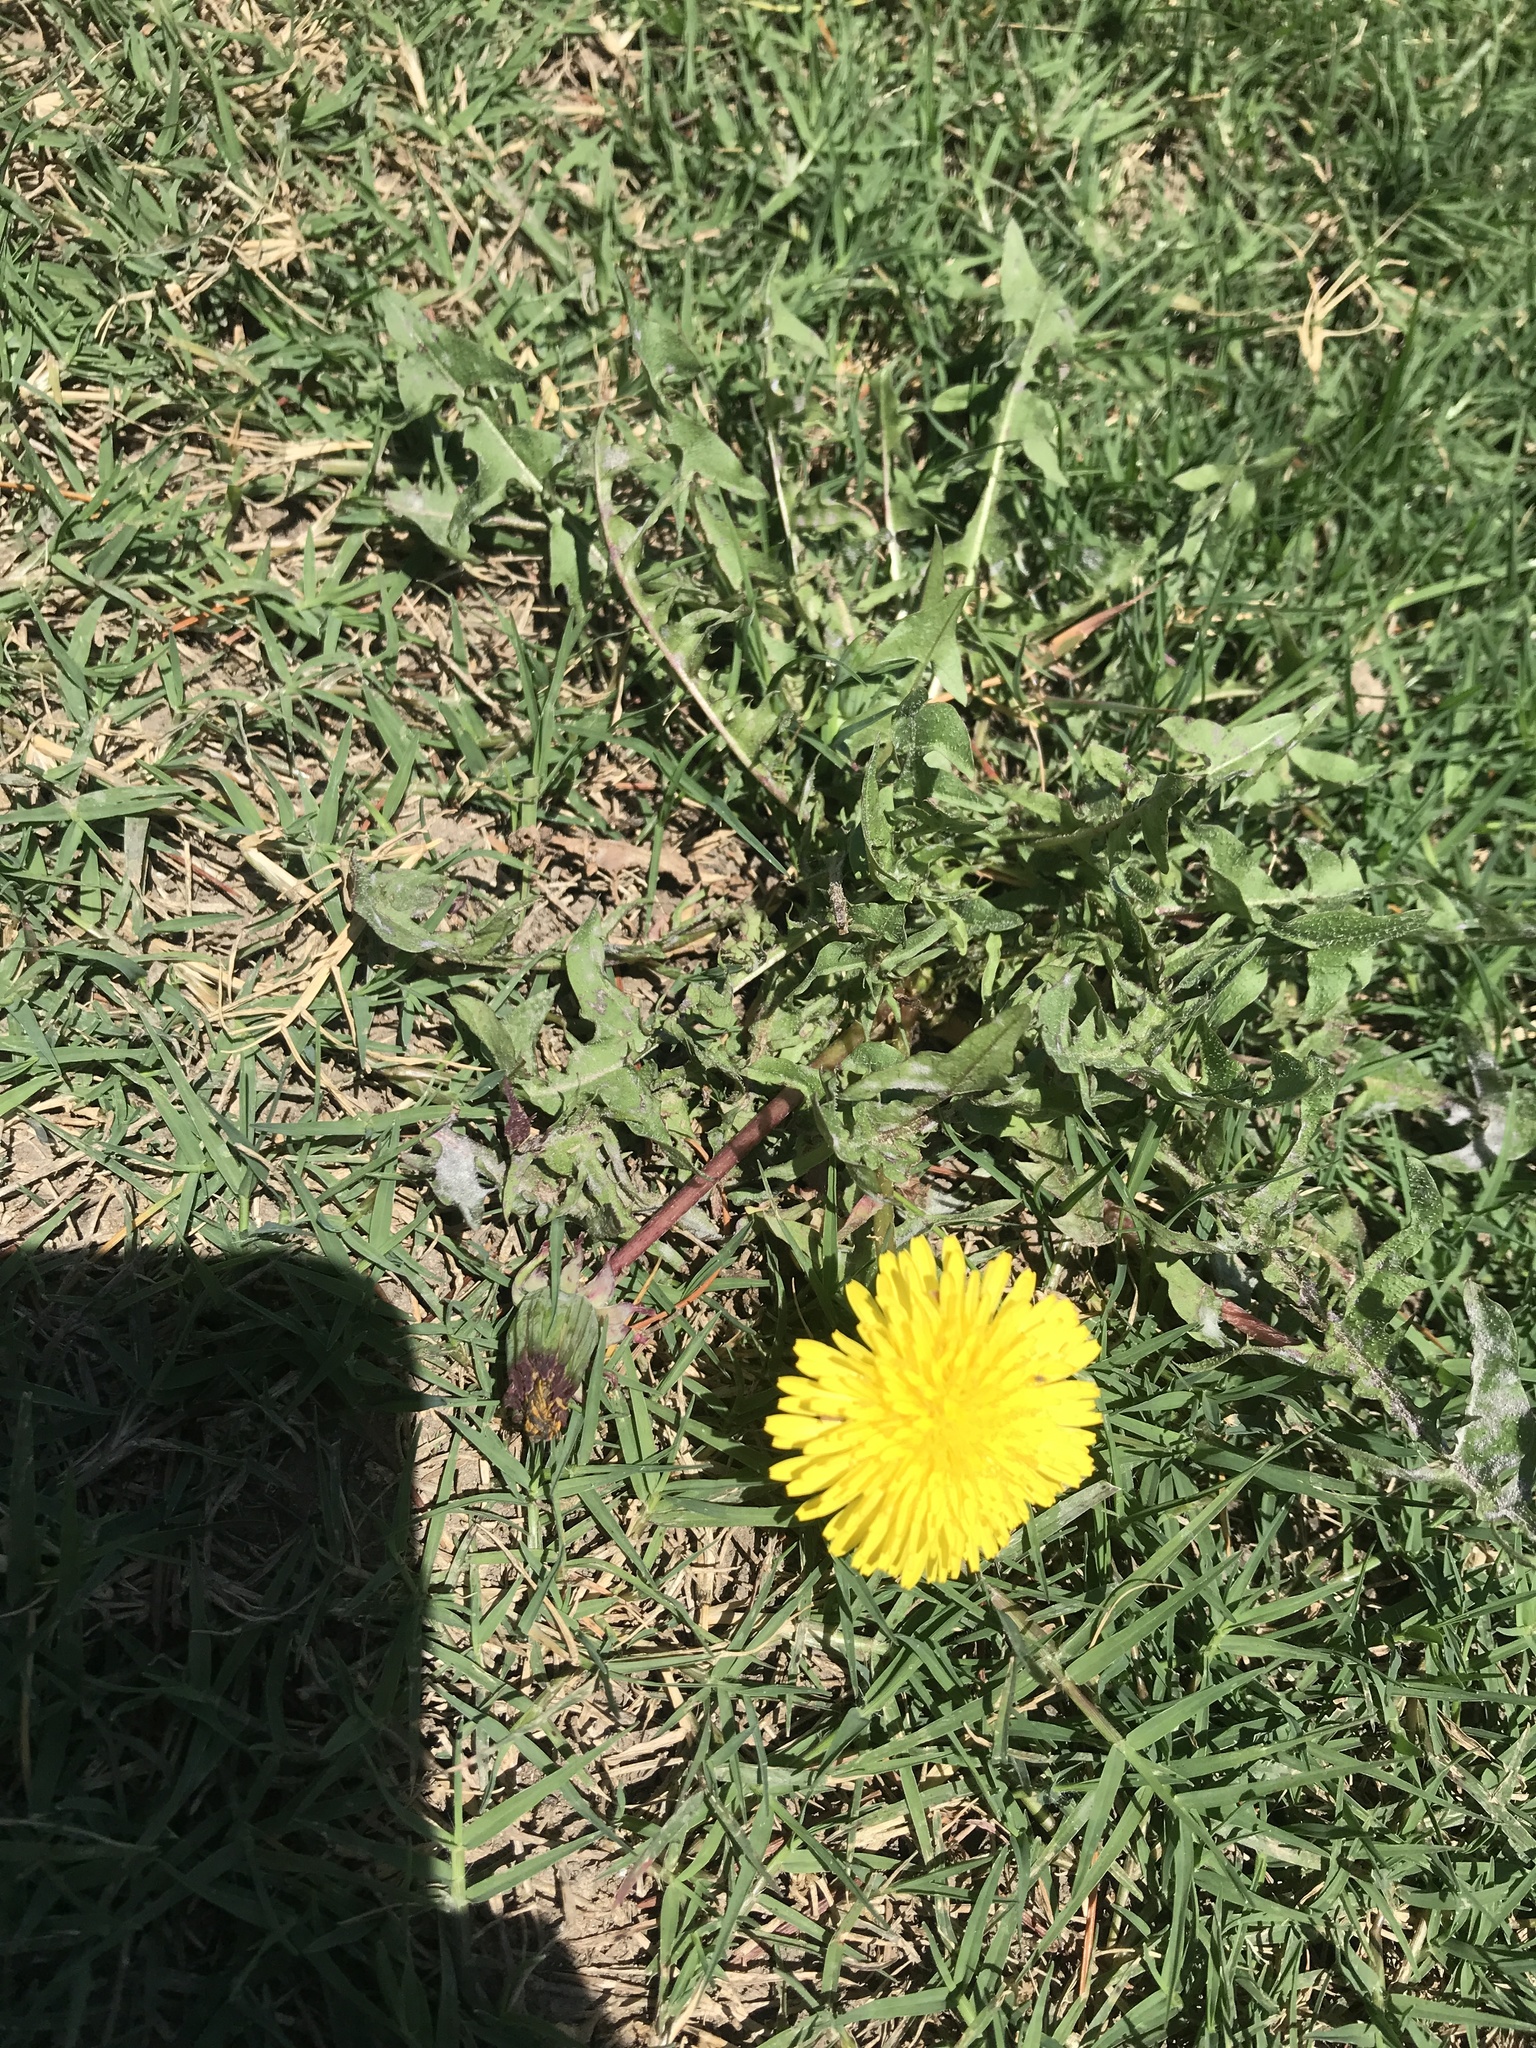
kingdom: Plantae
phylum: Tracheophyta
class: Magnoliopsida
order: Asterales
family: Asteraceae
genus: Taraxacum
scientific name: Taraxacum officinale
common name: Common dandelion
